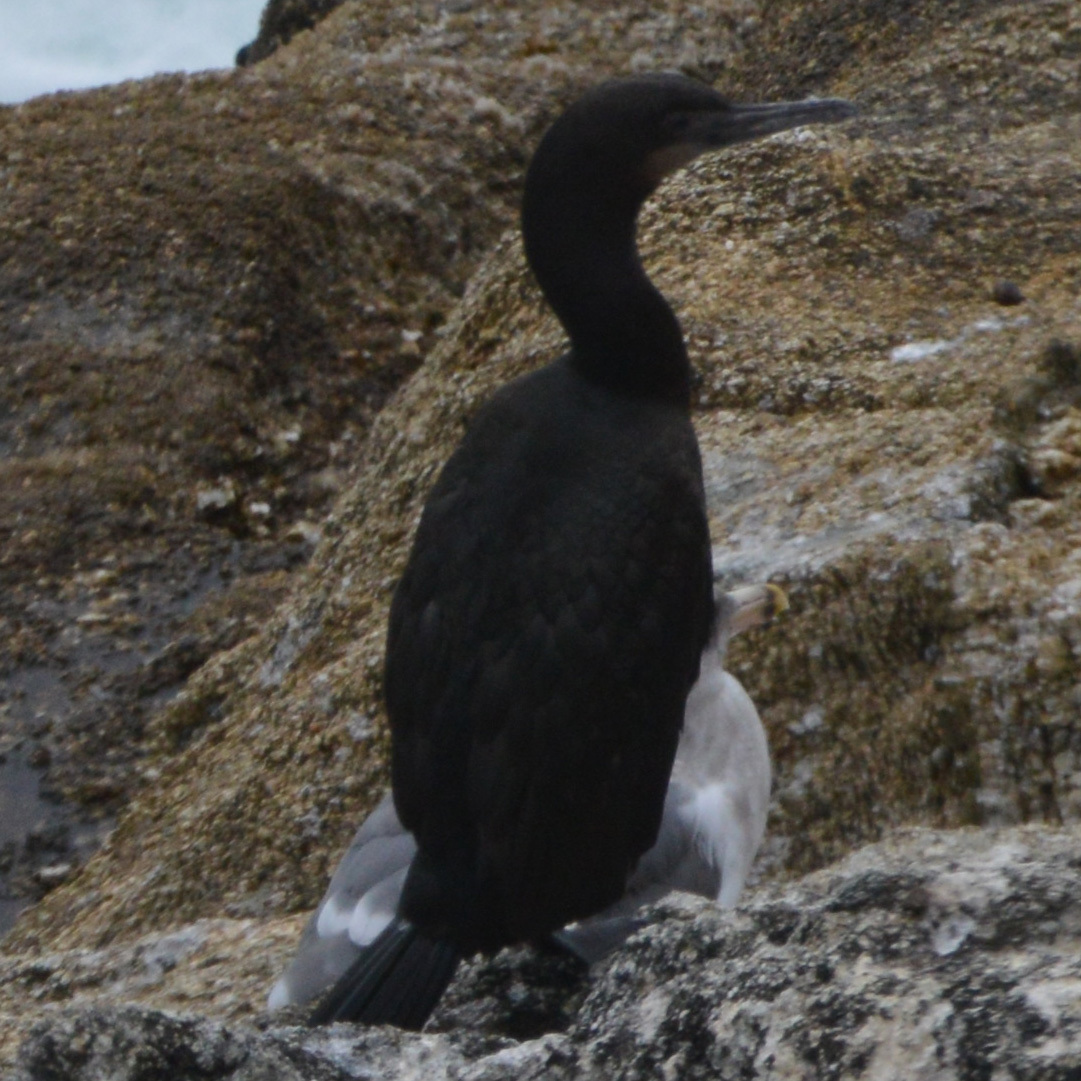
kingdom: Animalia
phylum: Chordata
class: Aves
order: Suliformes
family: Phalacrocoracidae
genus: Urile
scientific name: Urile penicillatus
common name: Brandt's cormorant
